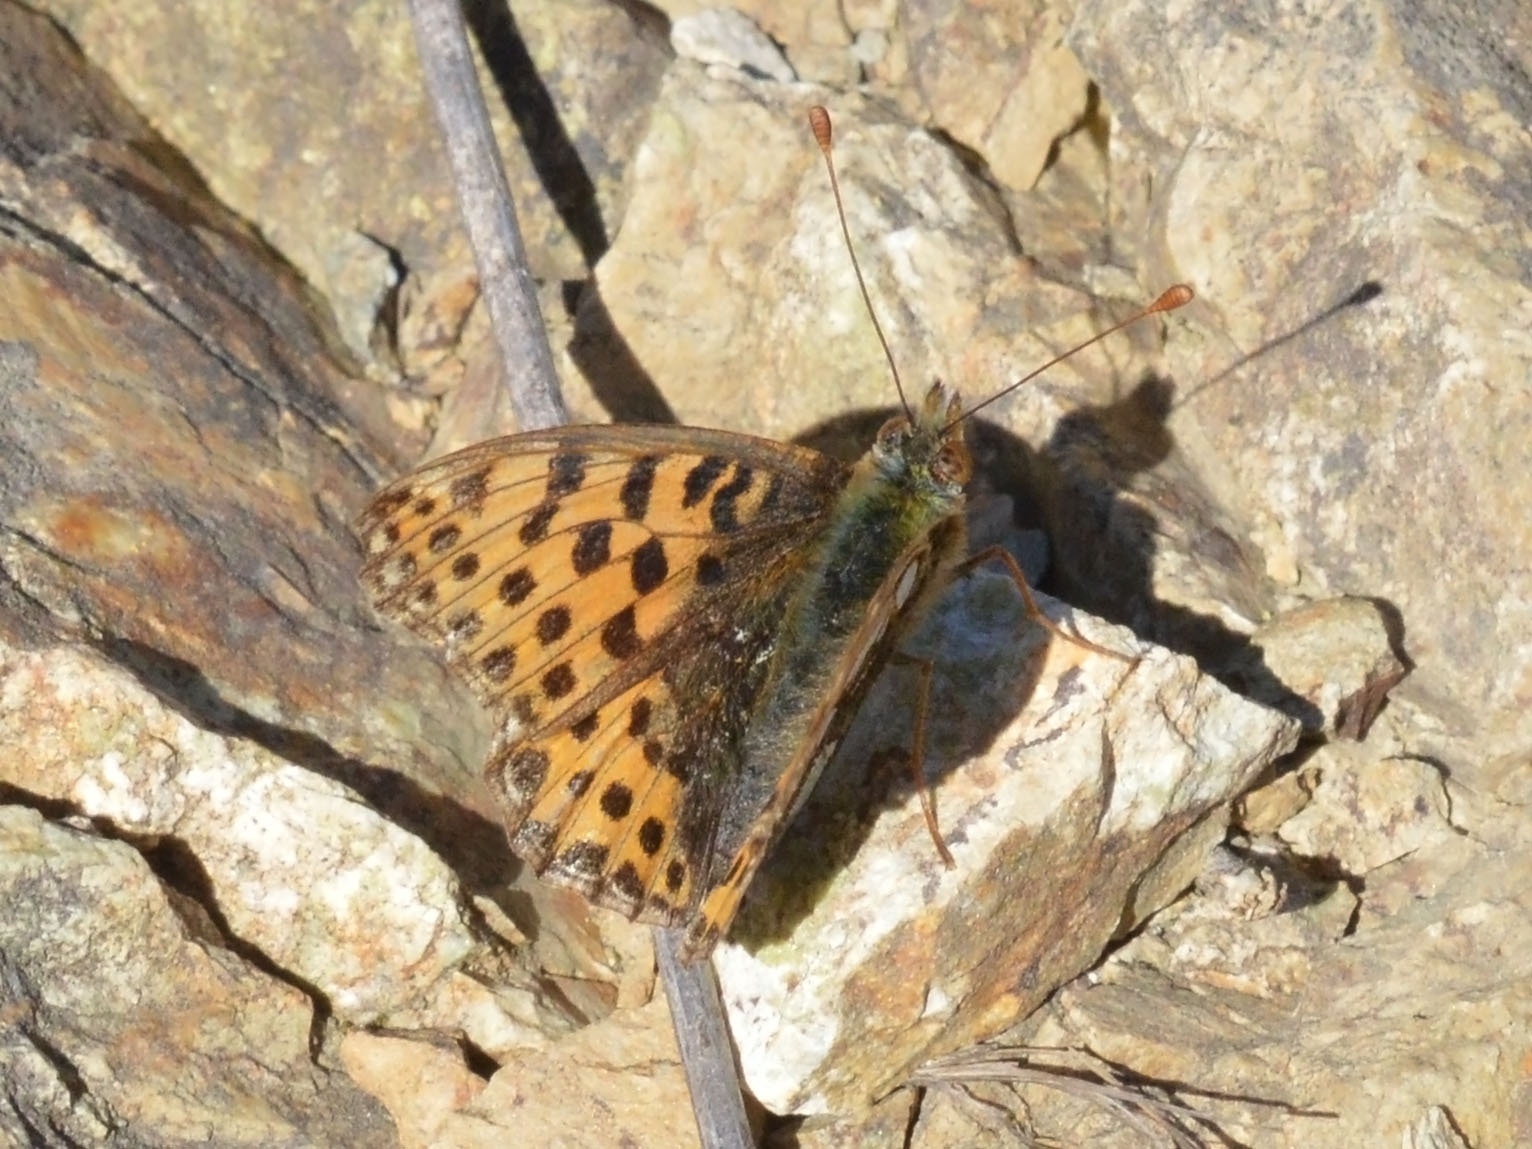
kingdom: Animalia
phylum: Arthropoda
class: Insecta
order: Lepidoptera
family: Nymphalidae
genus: Issoria
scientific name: Issoria lathonia
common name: Queen of spain fritillary
